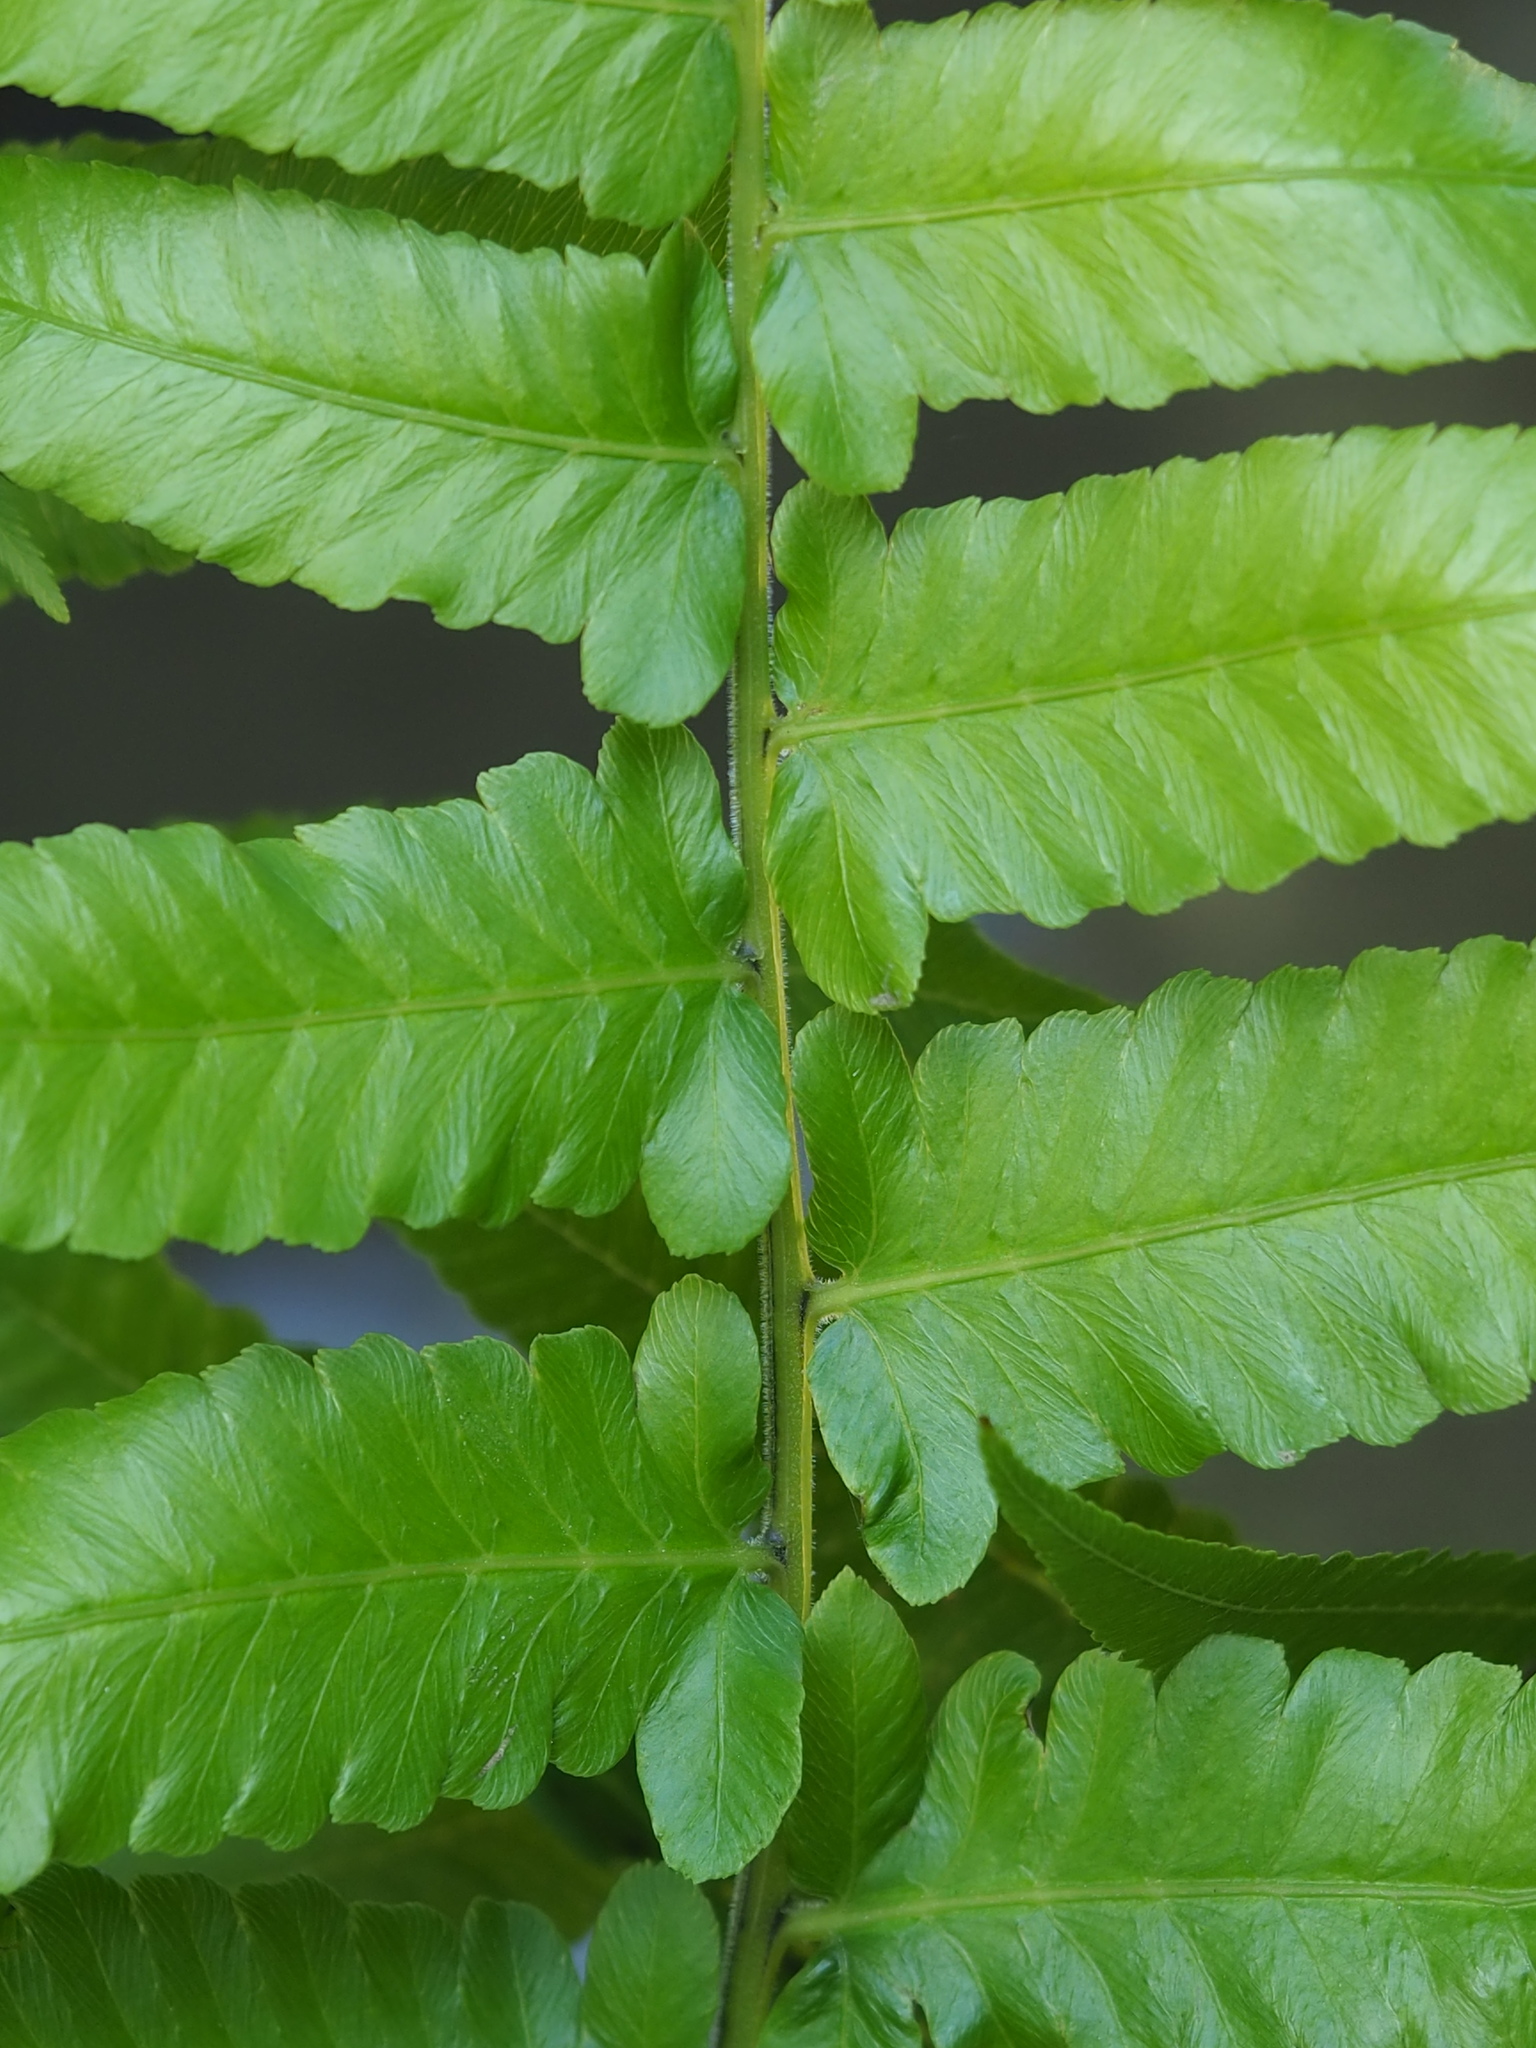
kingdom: Plantae
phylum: Tracheophyta
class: Polypodiopsida
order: Polypodiales
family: Athyriaceae
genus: Diplazium
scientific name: Diplazium esculentum
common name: Vegetable fern
